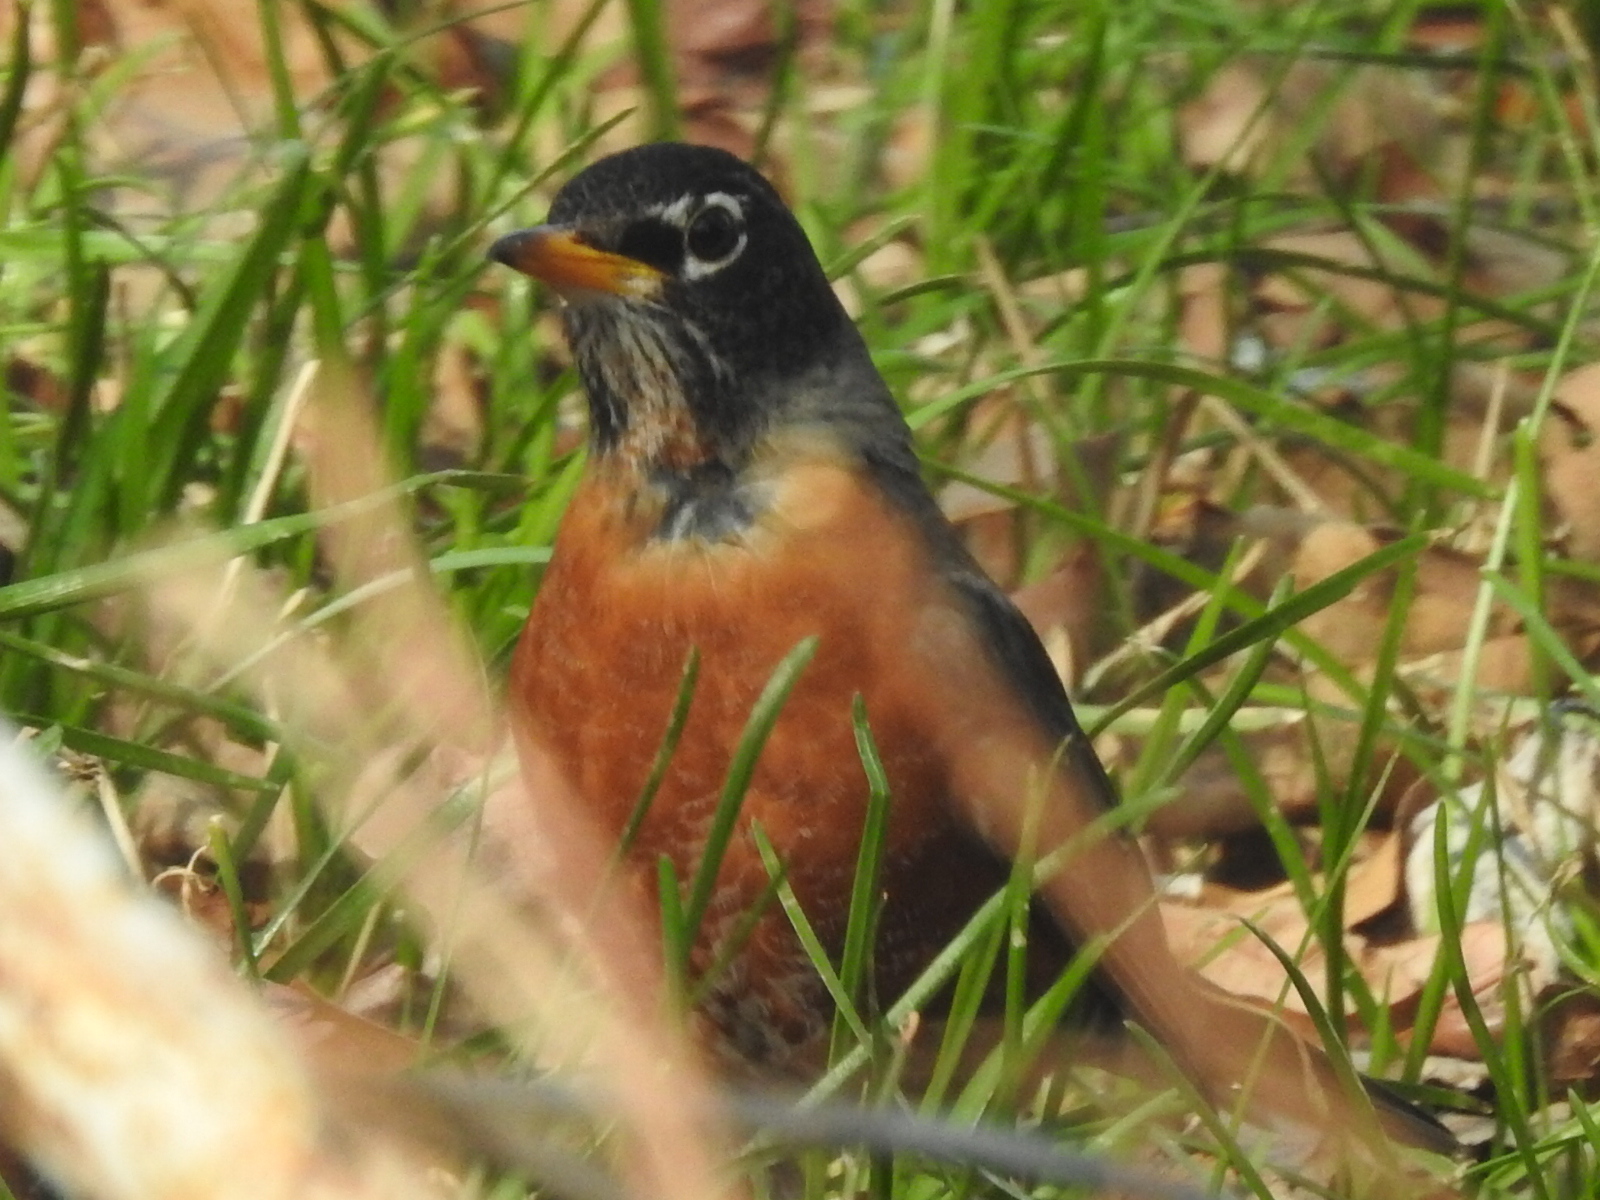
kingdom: Animalia
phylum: Chordata
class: Aves
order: Passeriformes
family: Turdidae
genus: Turdus
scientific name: Turdus migratorius
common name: American robin
